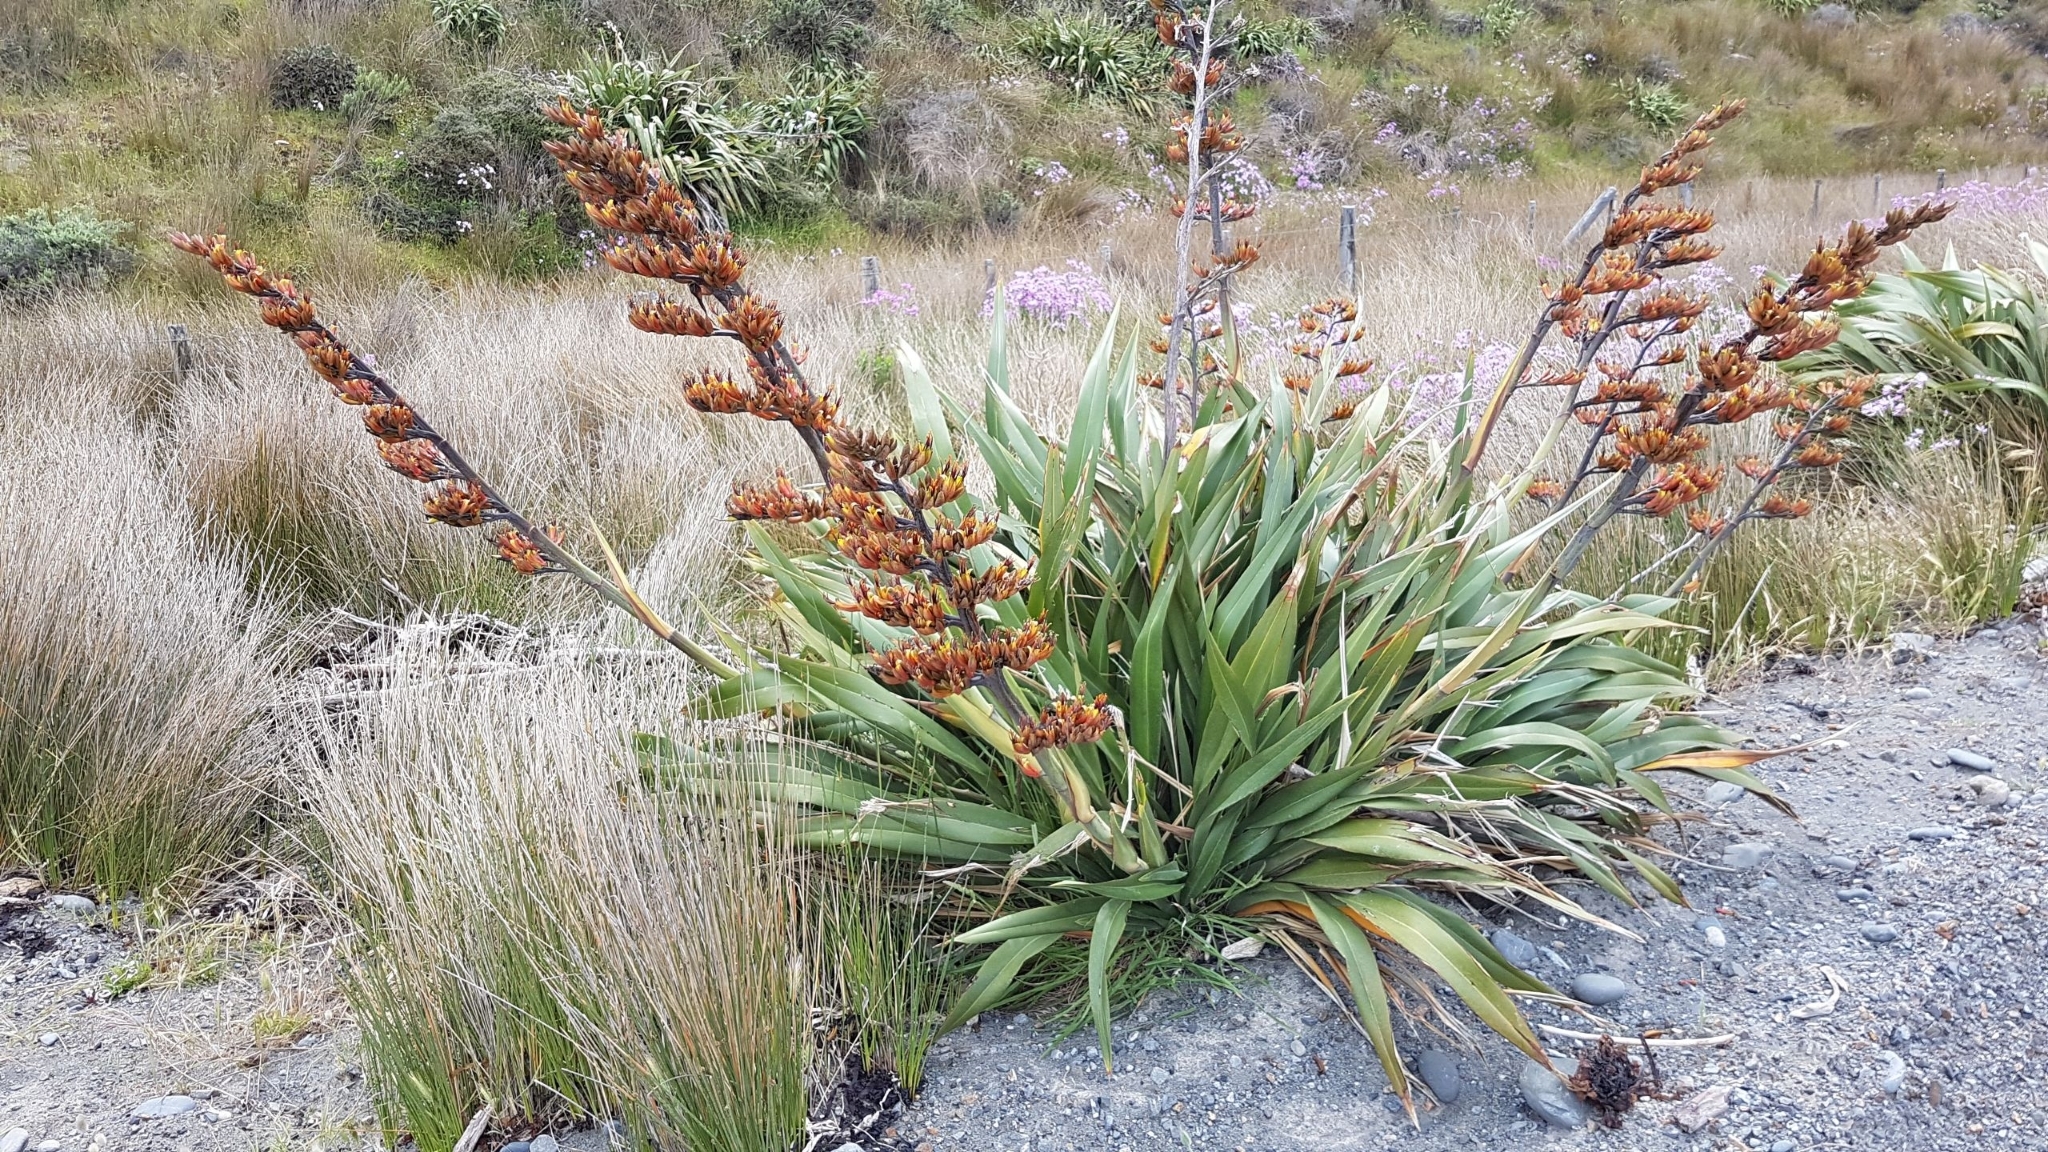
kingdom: Plantae
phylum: Tracheophyta
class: Liliopsida
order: Asparagales
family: Asphodelaceae
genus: Phormium
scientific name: Phormium colensoi
